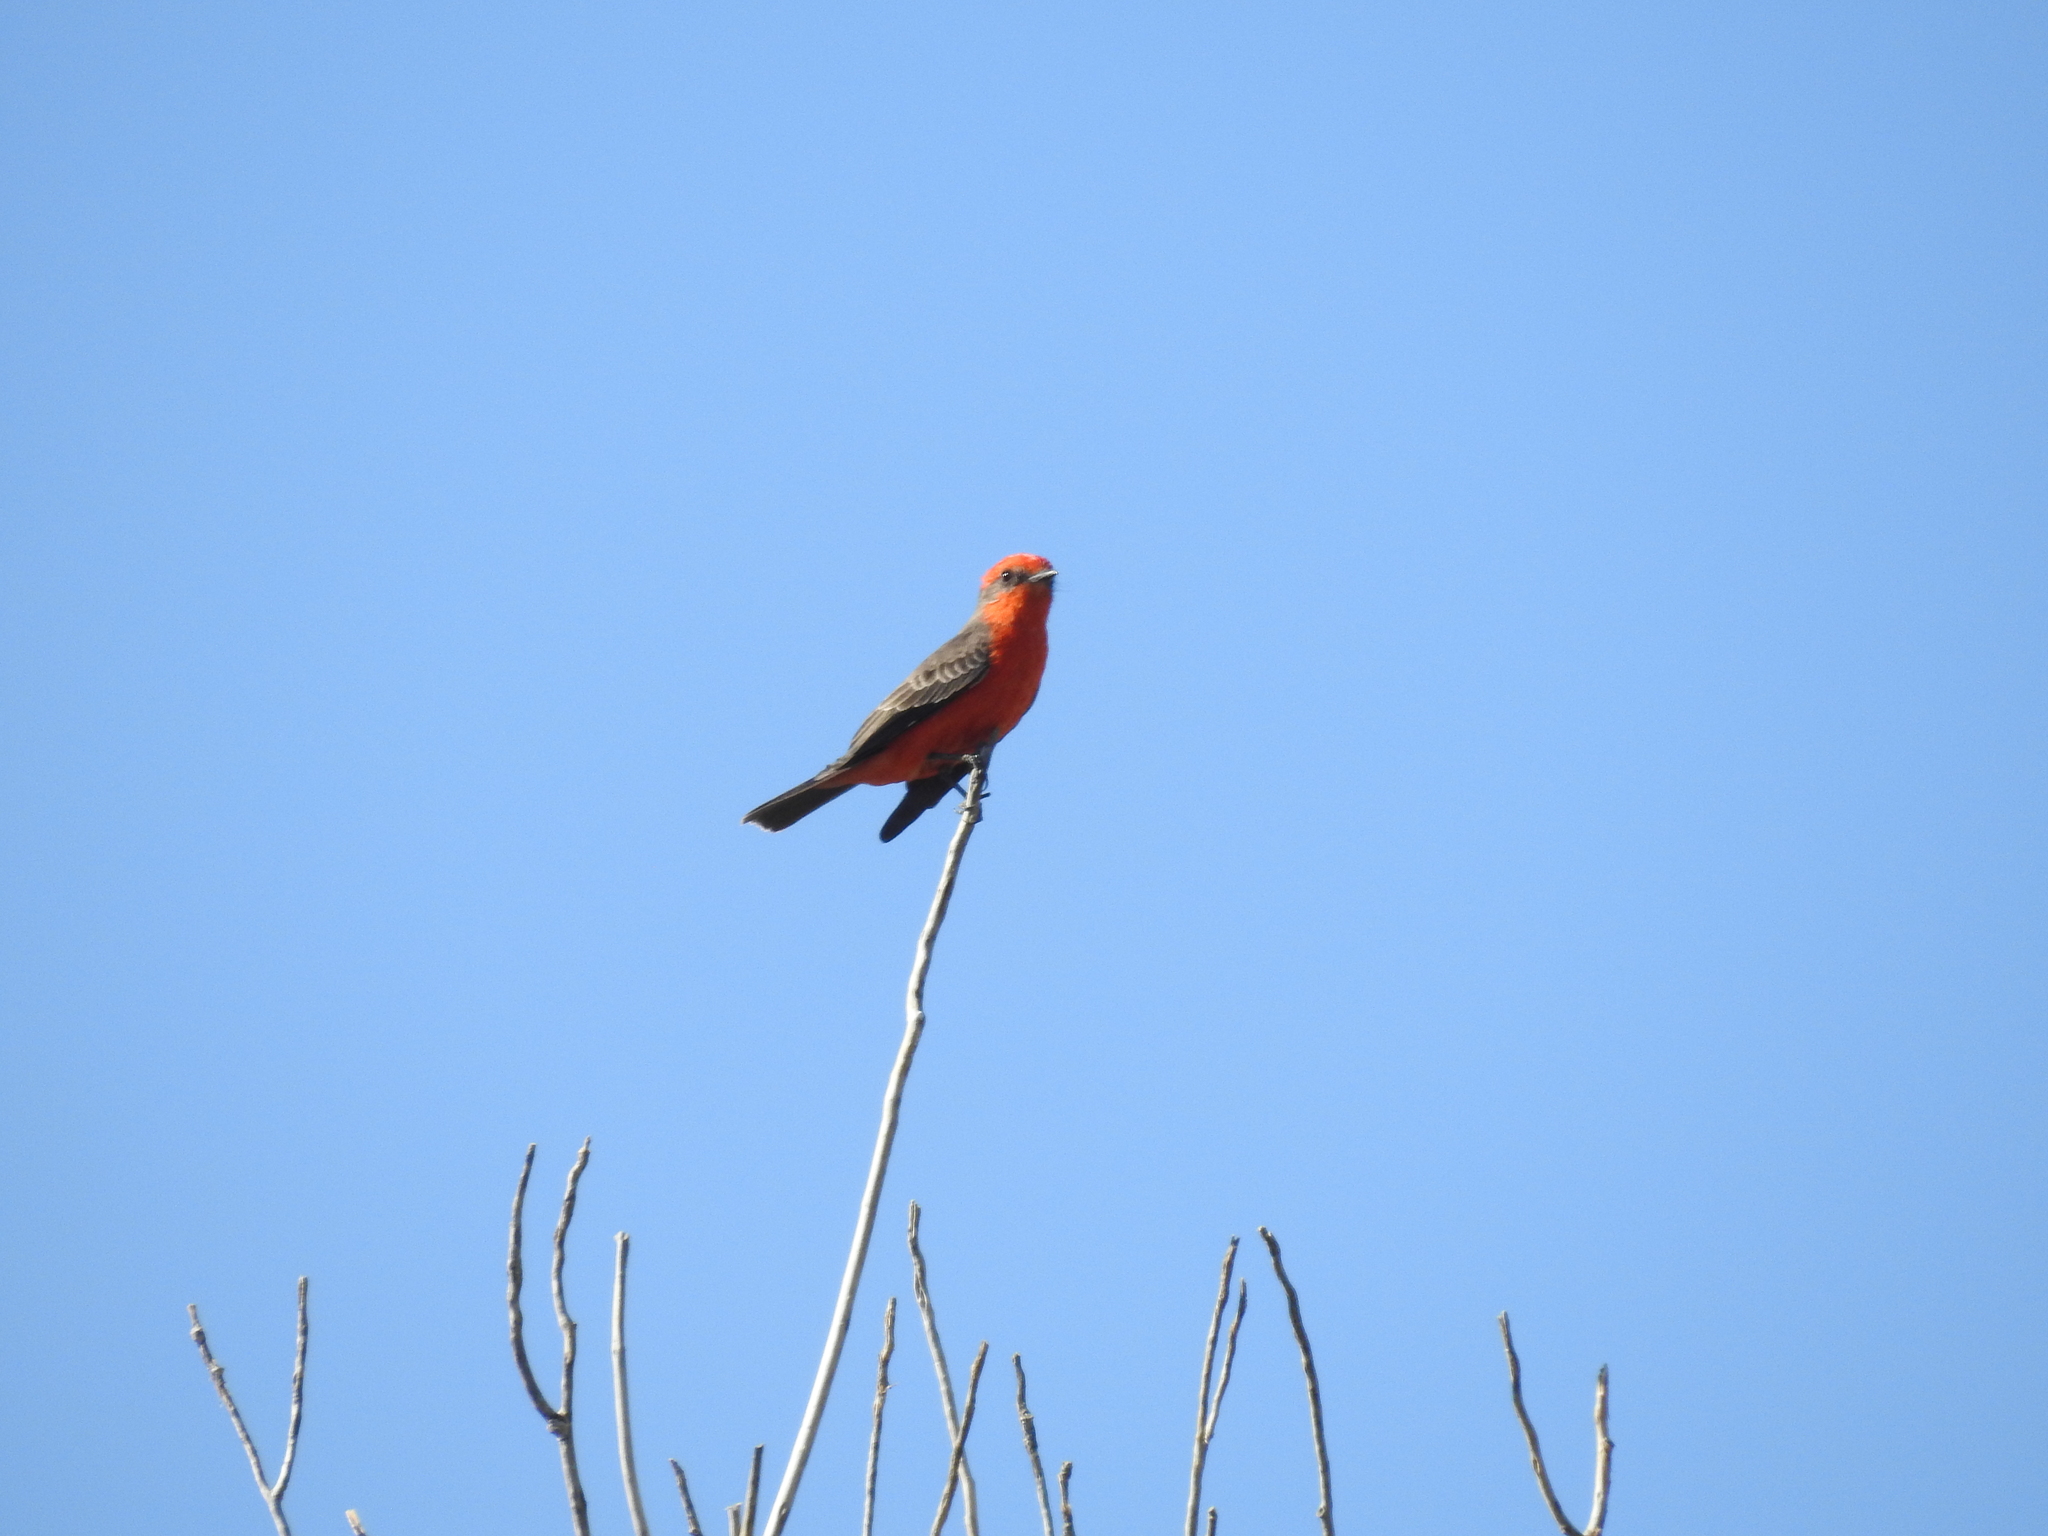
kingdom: Animalia
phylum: Chordata
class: Aves
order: Passeriformes
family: Tyrannidae
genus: Pyrocephalus
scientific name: Pyrocephalus rubinus
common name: Vermilion flycatcher
